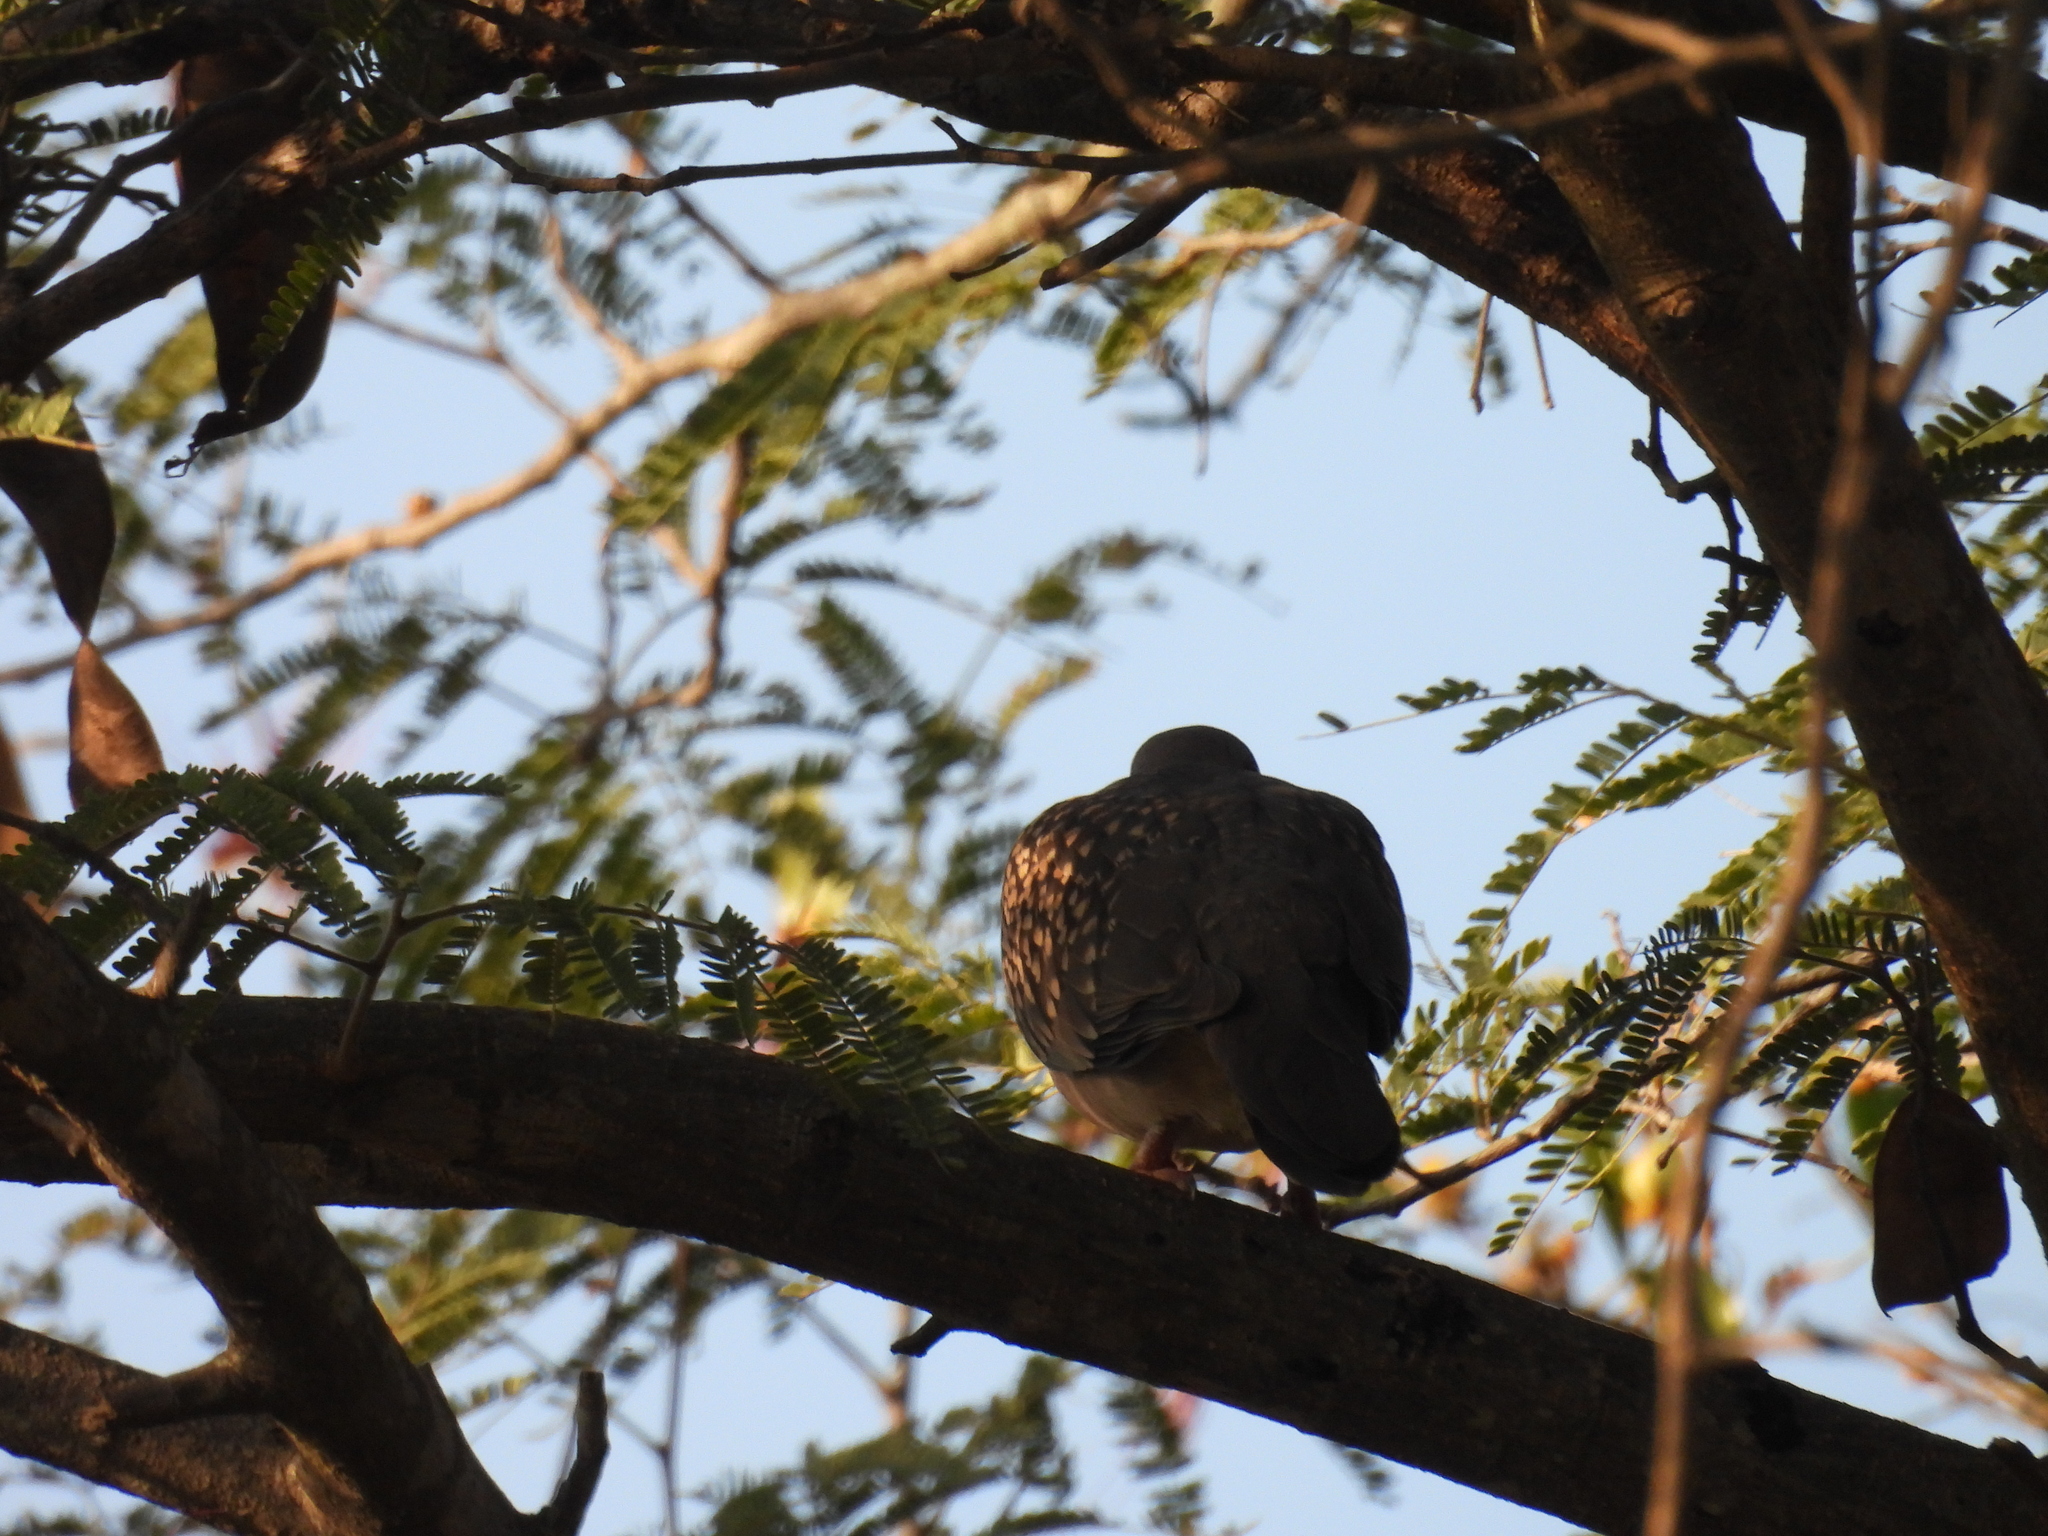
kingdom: Animalia
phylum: Chordata
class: Aves
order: Columbiformes
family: Columbidae
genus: Spilopelia
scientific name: Spilopelia chinensis
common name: Spotted dove
